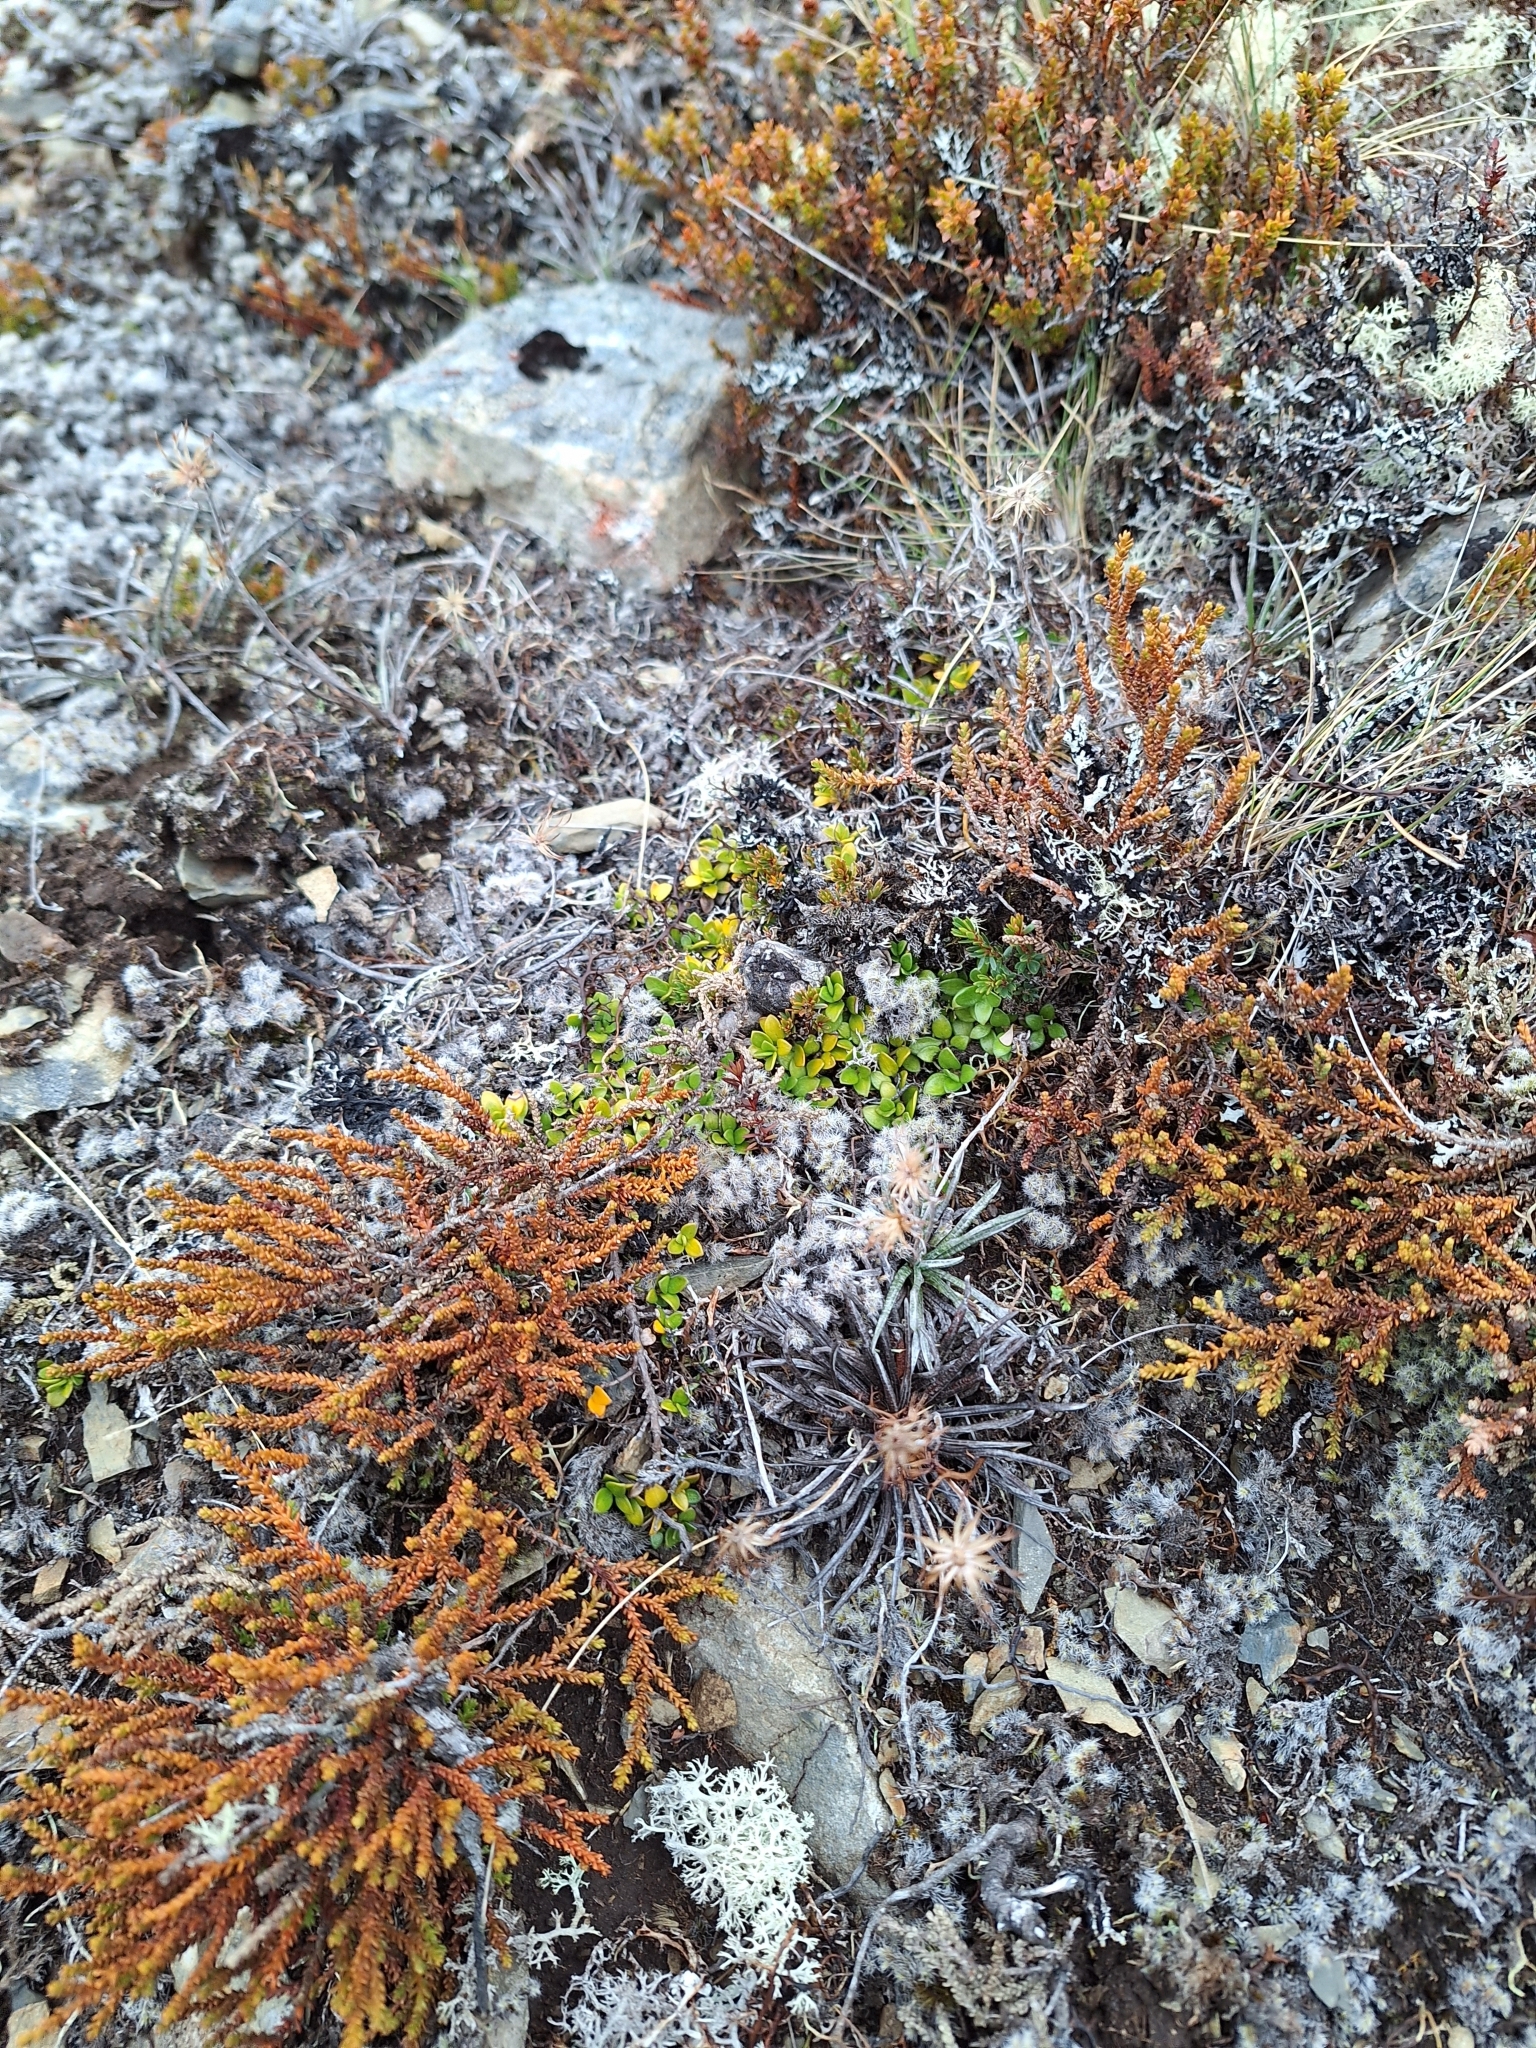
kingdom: Plantae
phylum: Tracheophyta
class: Magnoliopsida
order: Gentianales
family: Rubiaceae
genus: Coprosma
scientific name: Coprosma perpusilla
